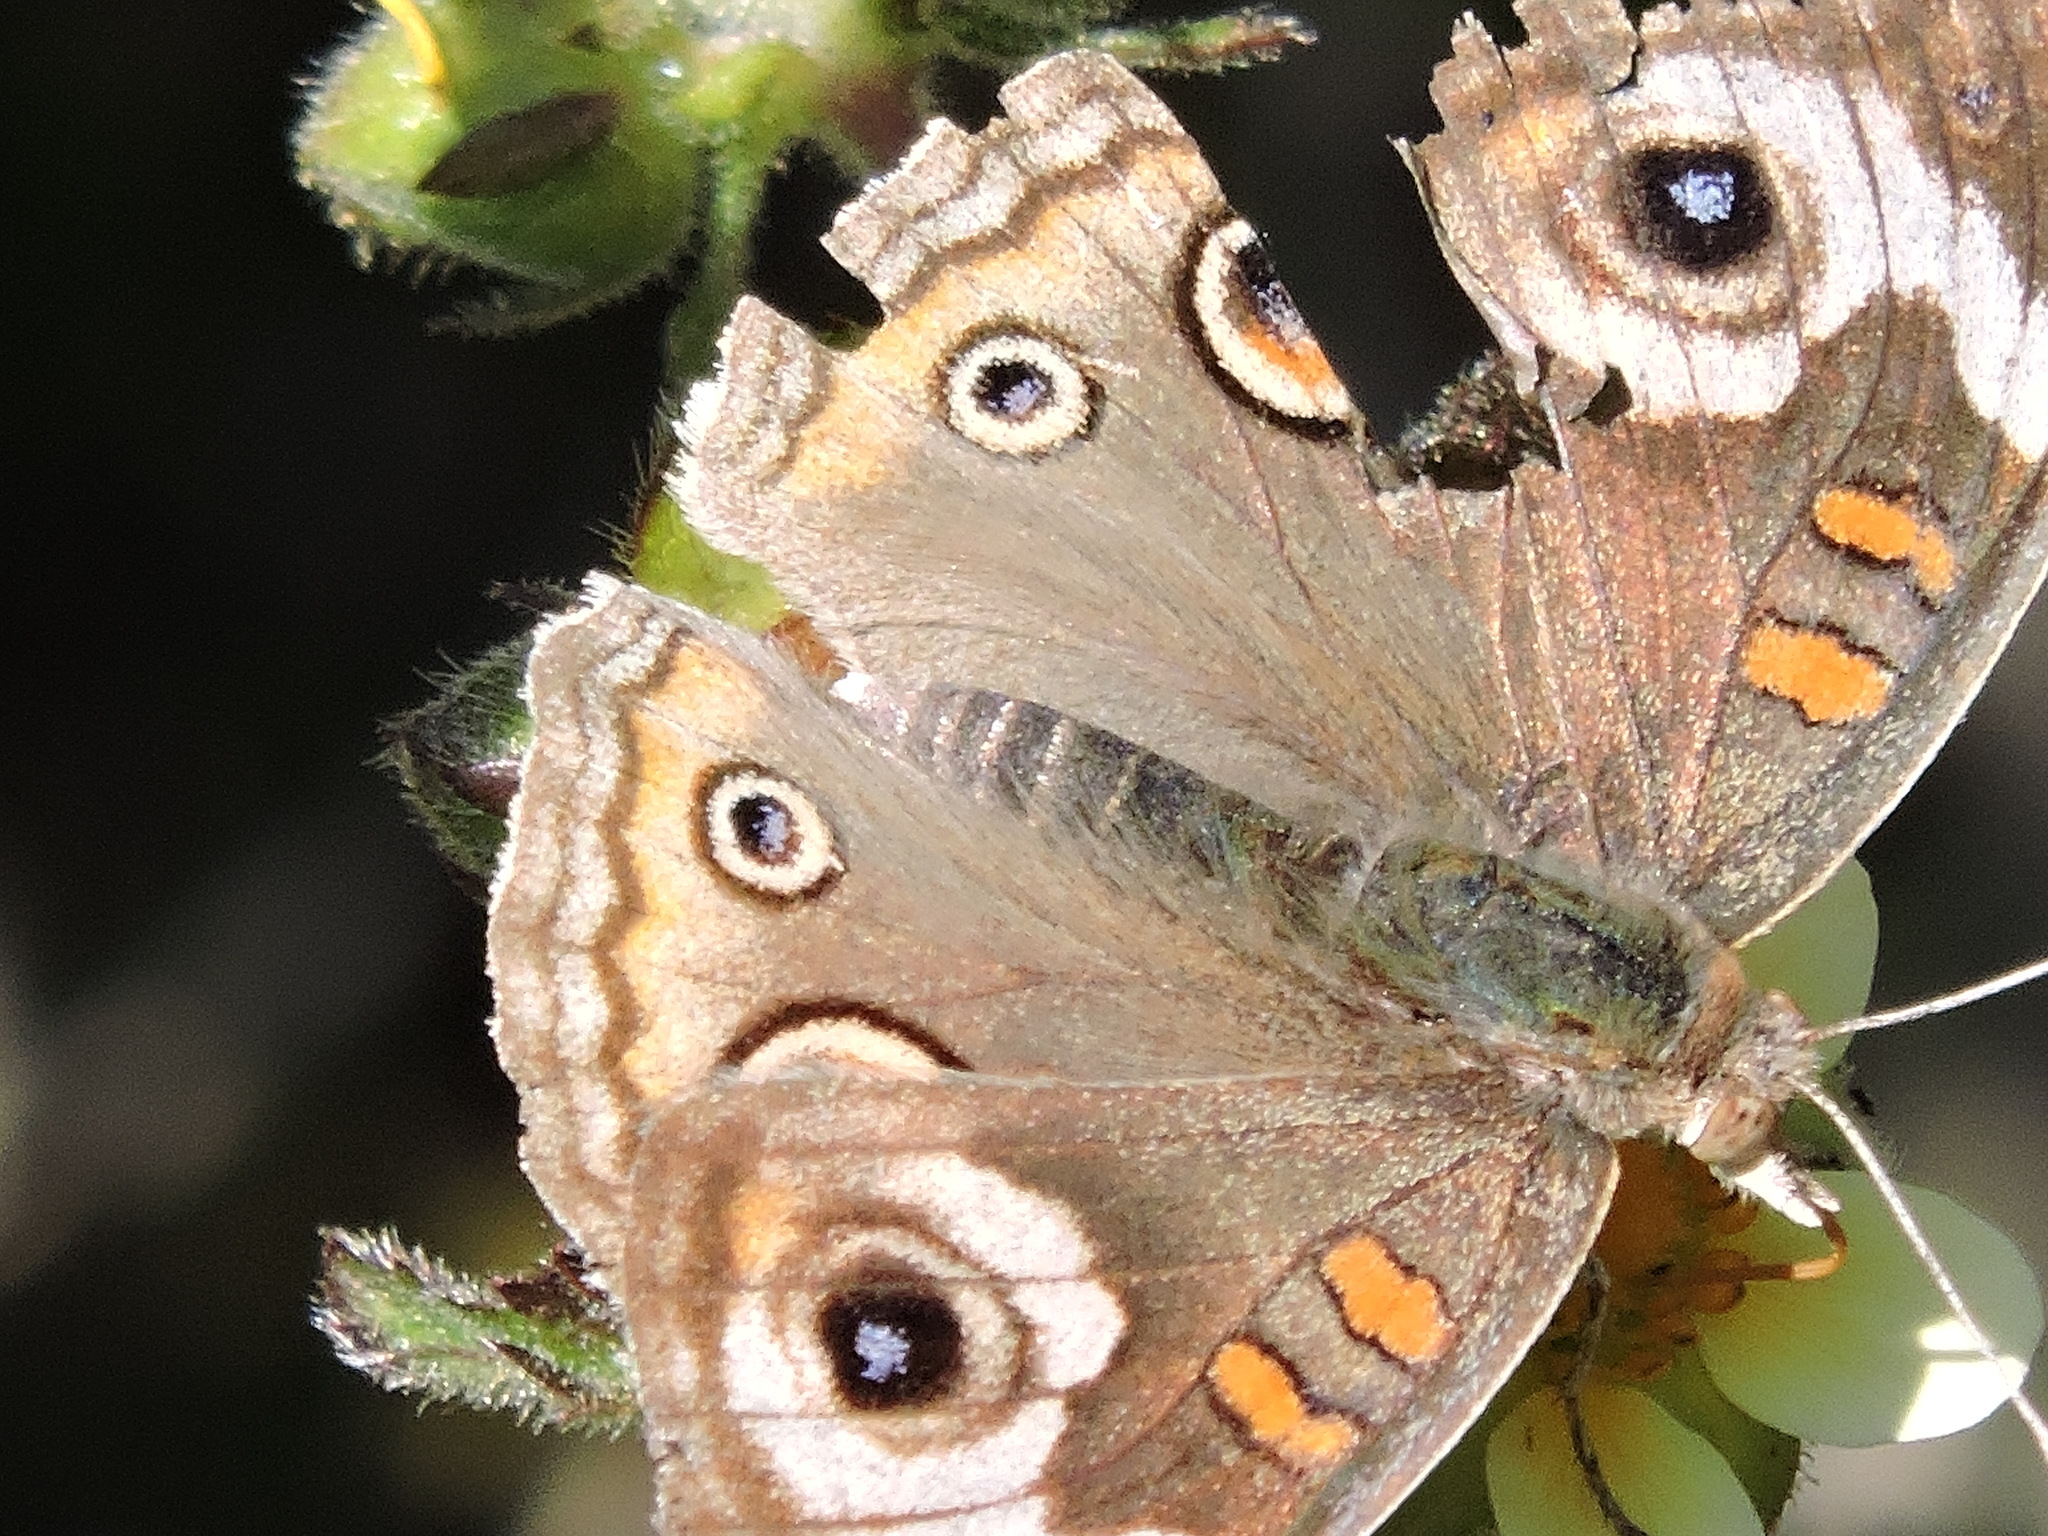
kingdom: Animalia
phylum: Arthropoda
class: Insecta
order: Lepidoptera
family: Nymphalidae
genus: Junonia
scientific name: Junonia grisea
